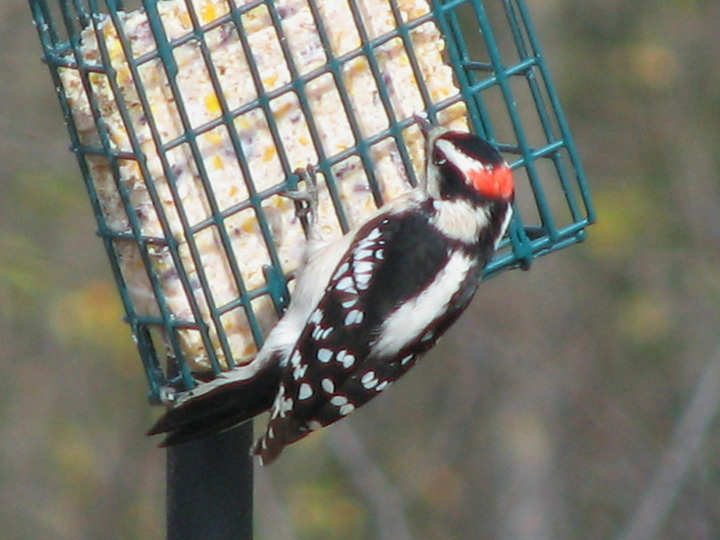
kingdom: Animalia
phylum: Chordata
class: Aves
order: Piciformes
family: Picidae
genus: Dryobates
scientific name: Dryobates pubescens
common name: Downy woodpecker
